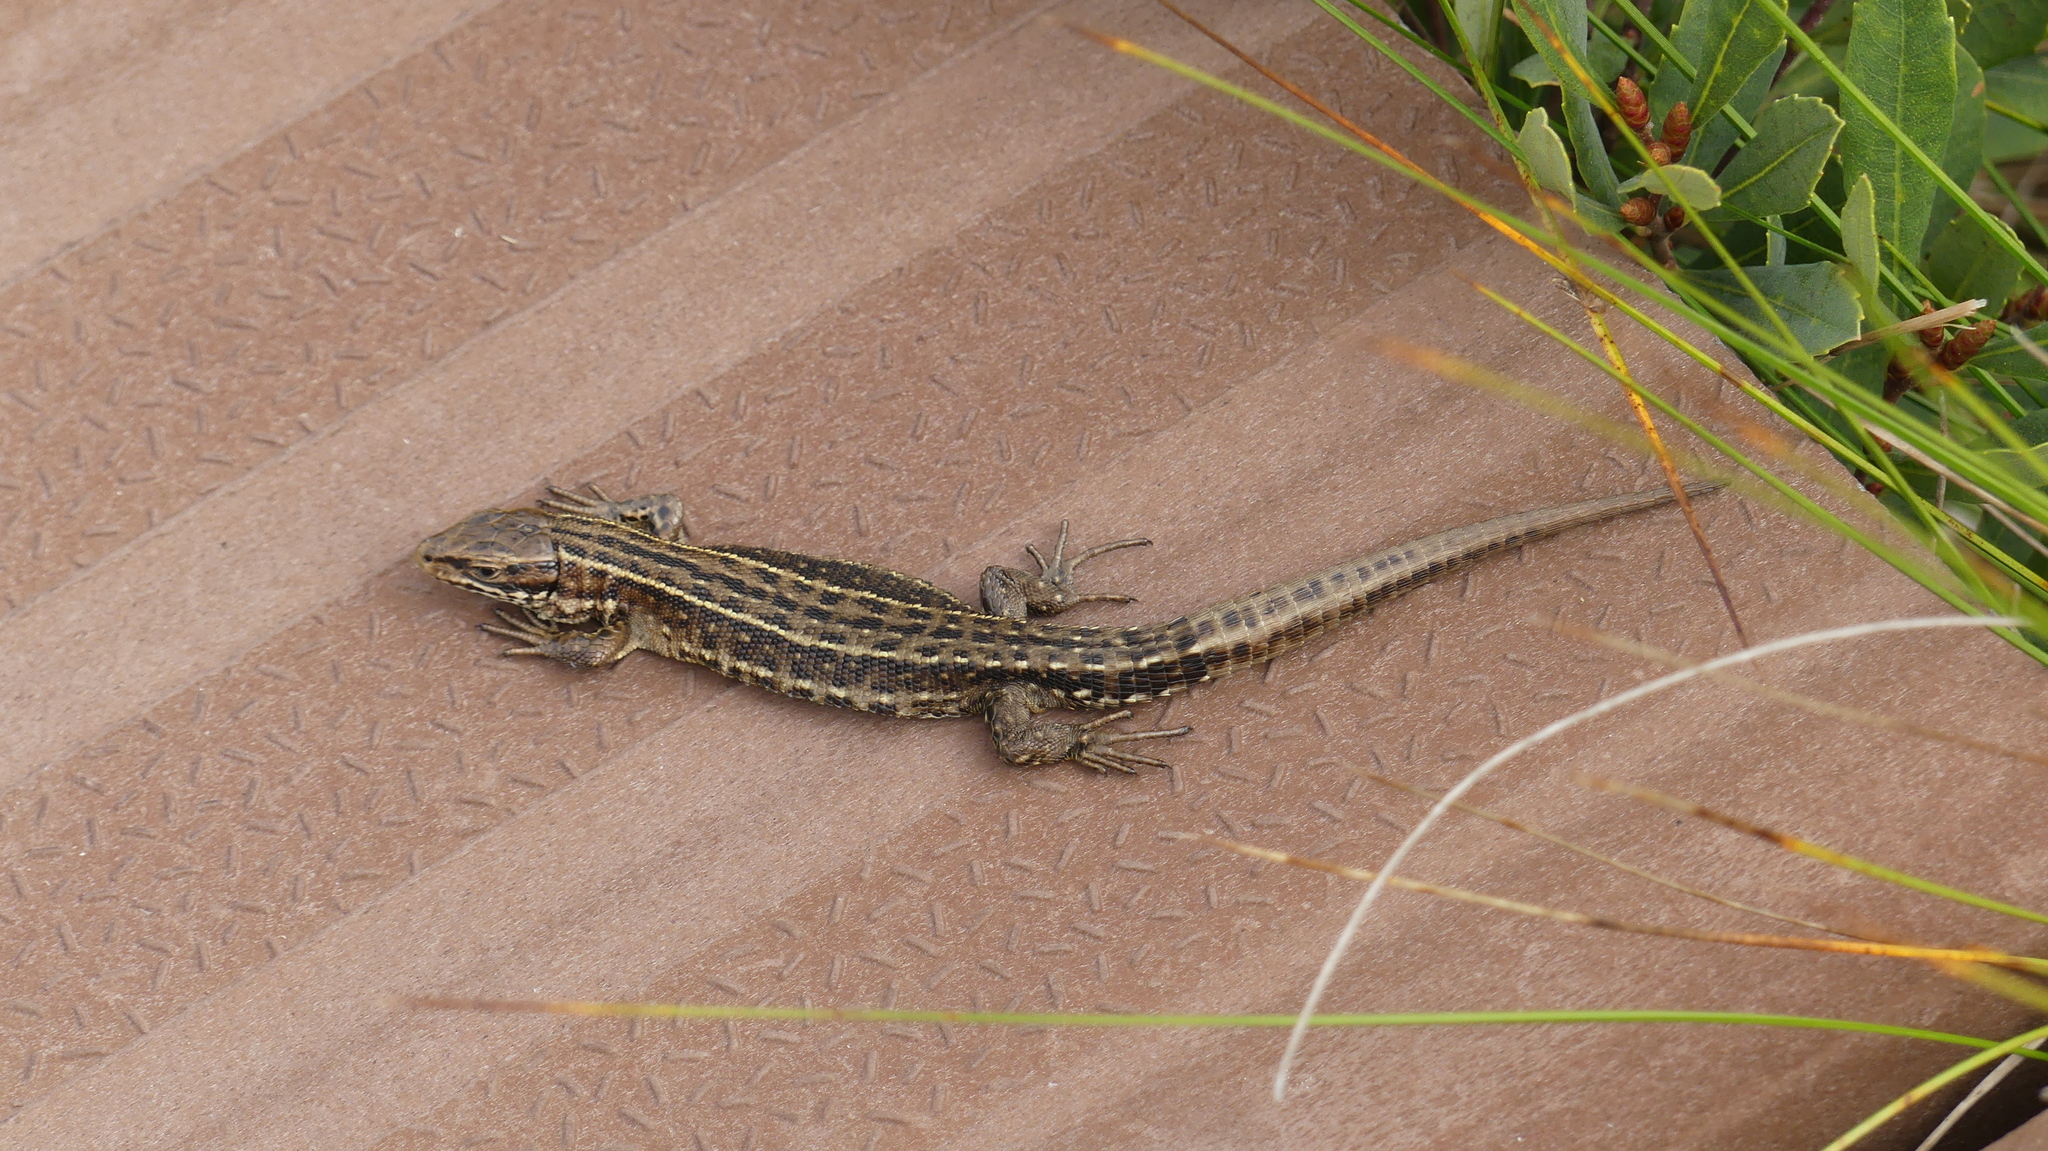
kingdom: Animalia
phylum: Chordata
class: Squamata
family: Lacertidae
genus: Zootoca
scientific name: Zootoca vivipara
